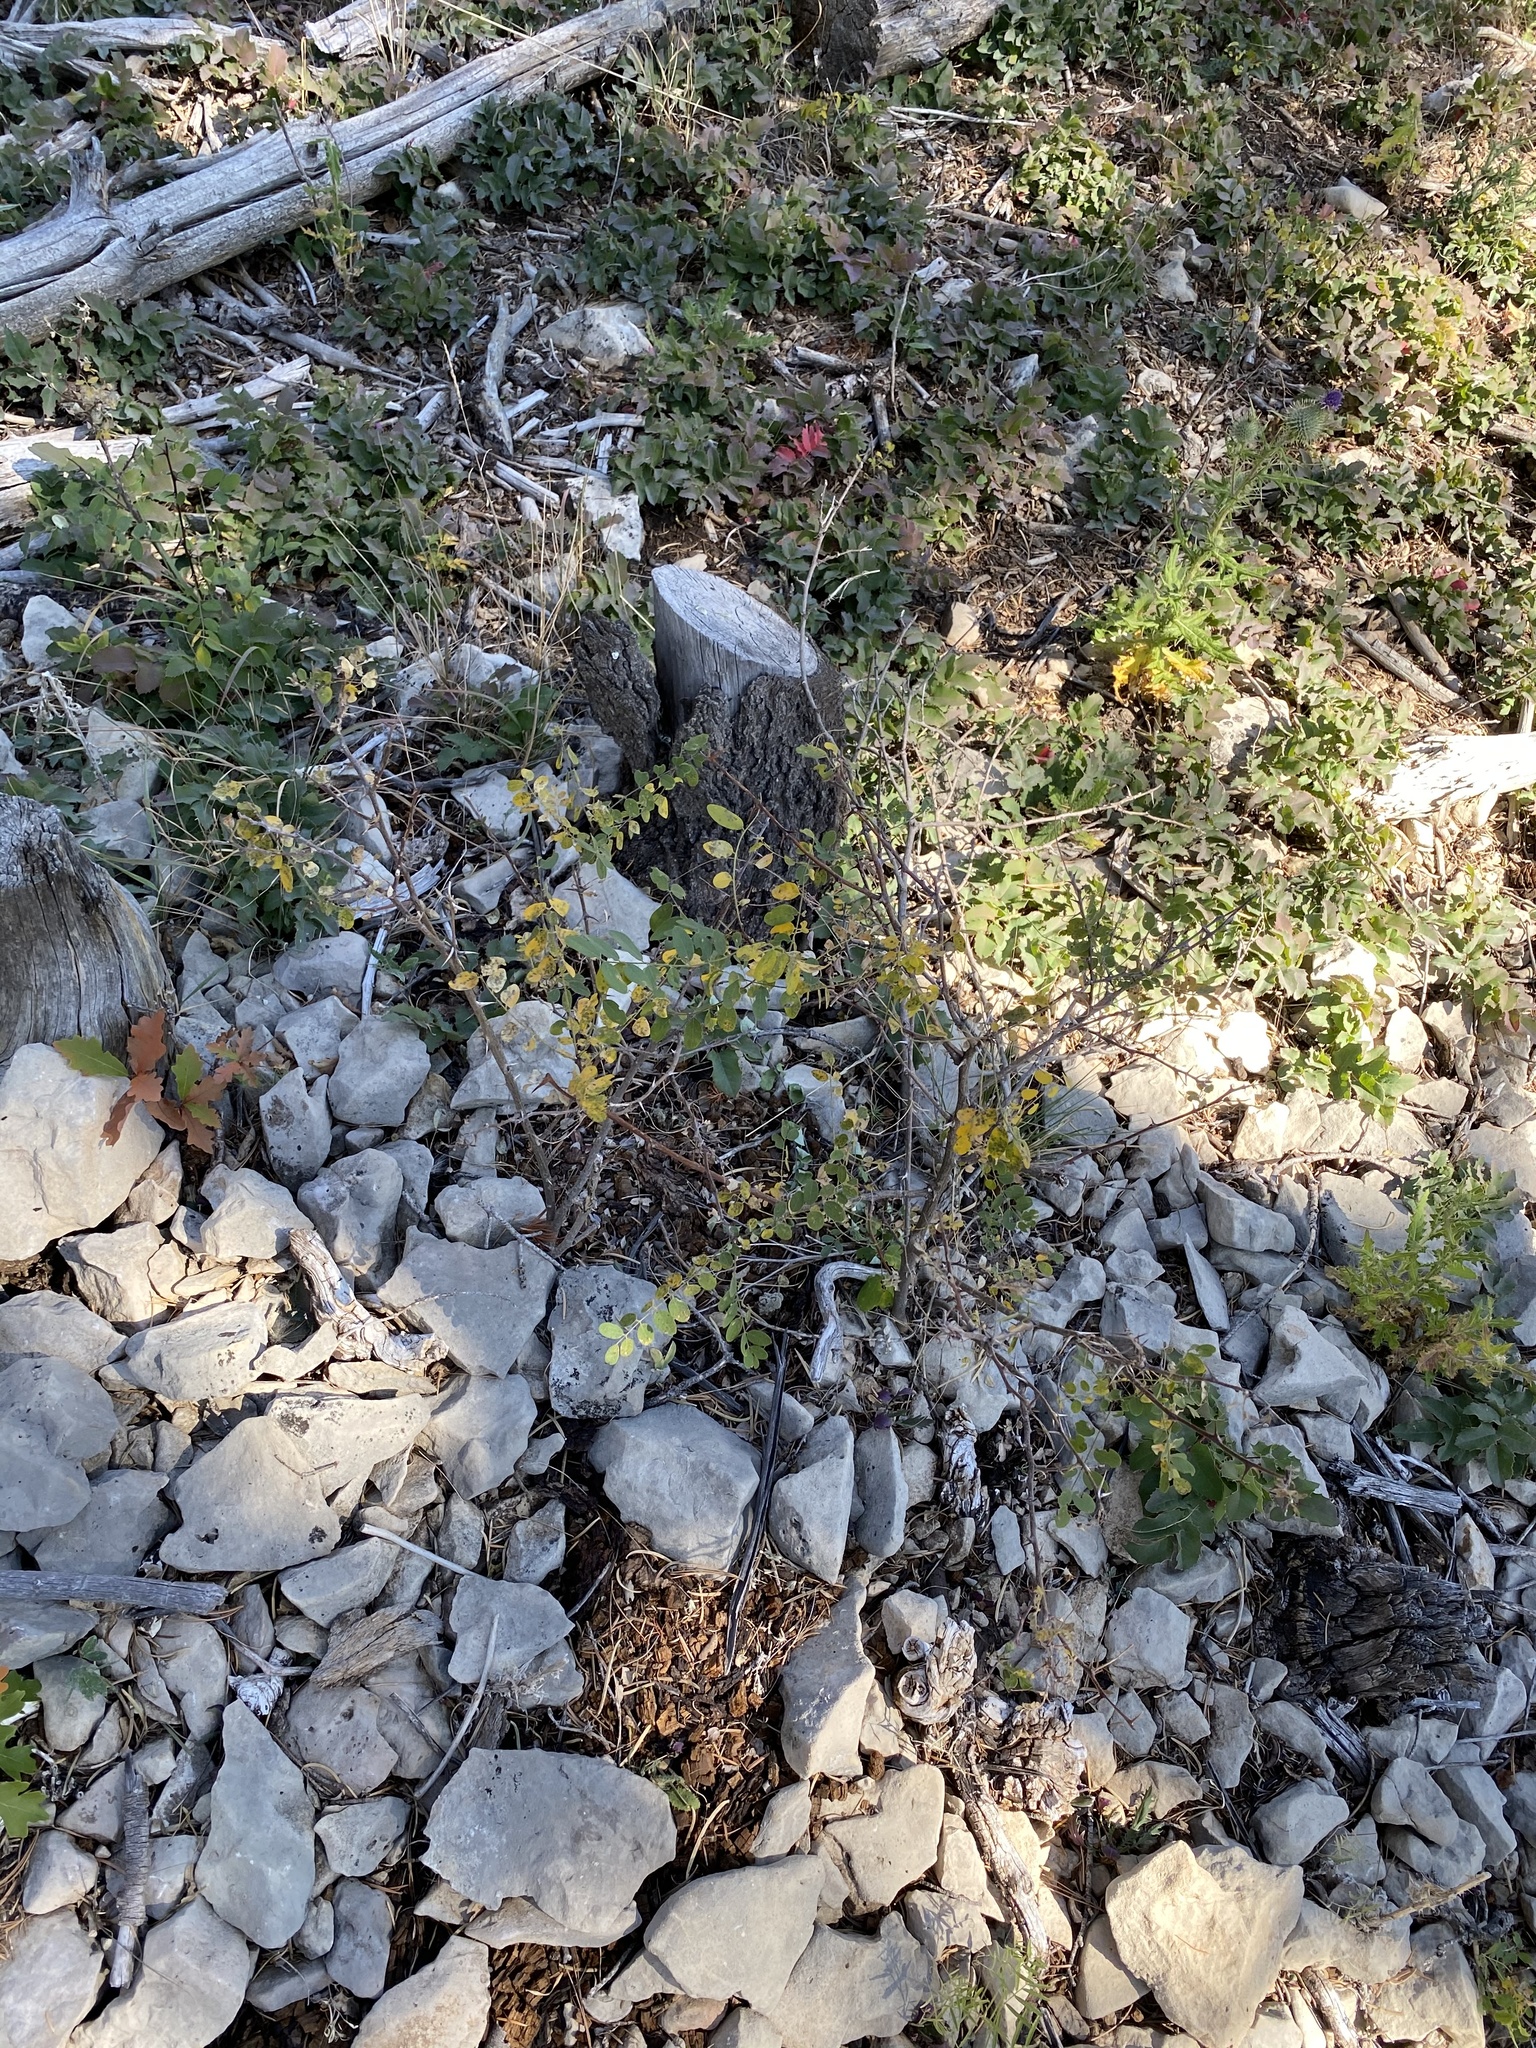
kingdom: Plantae
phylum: Tracheophyta
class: Magnoliopsida
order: Fabales
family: Fabaceae
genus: Robinia
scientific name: Robinia neomexicana
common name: New mexico locust
